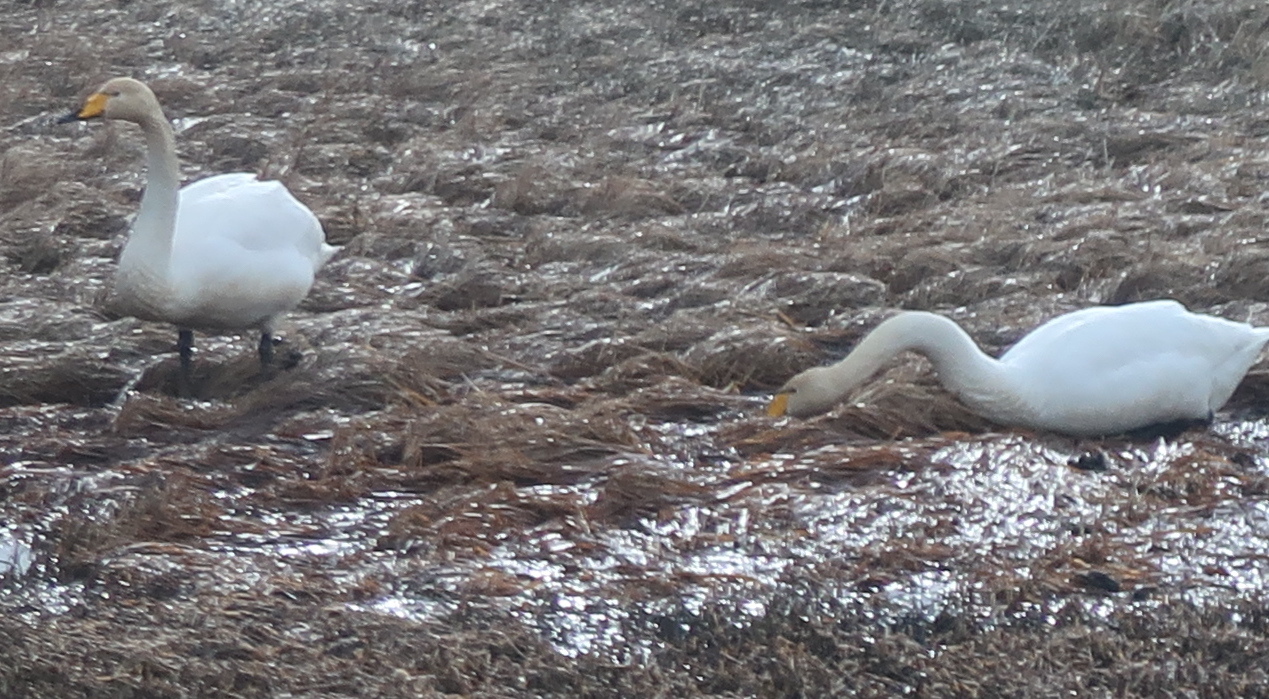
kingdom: Animalia
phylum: Chordata
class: Aves
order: Anseriformes
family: Anatidae
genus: Cygnus
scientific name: Cygnus cygnus
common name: Whooper swan
